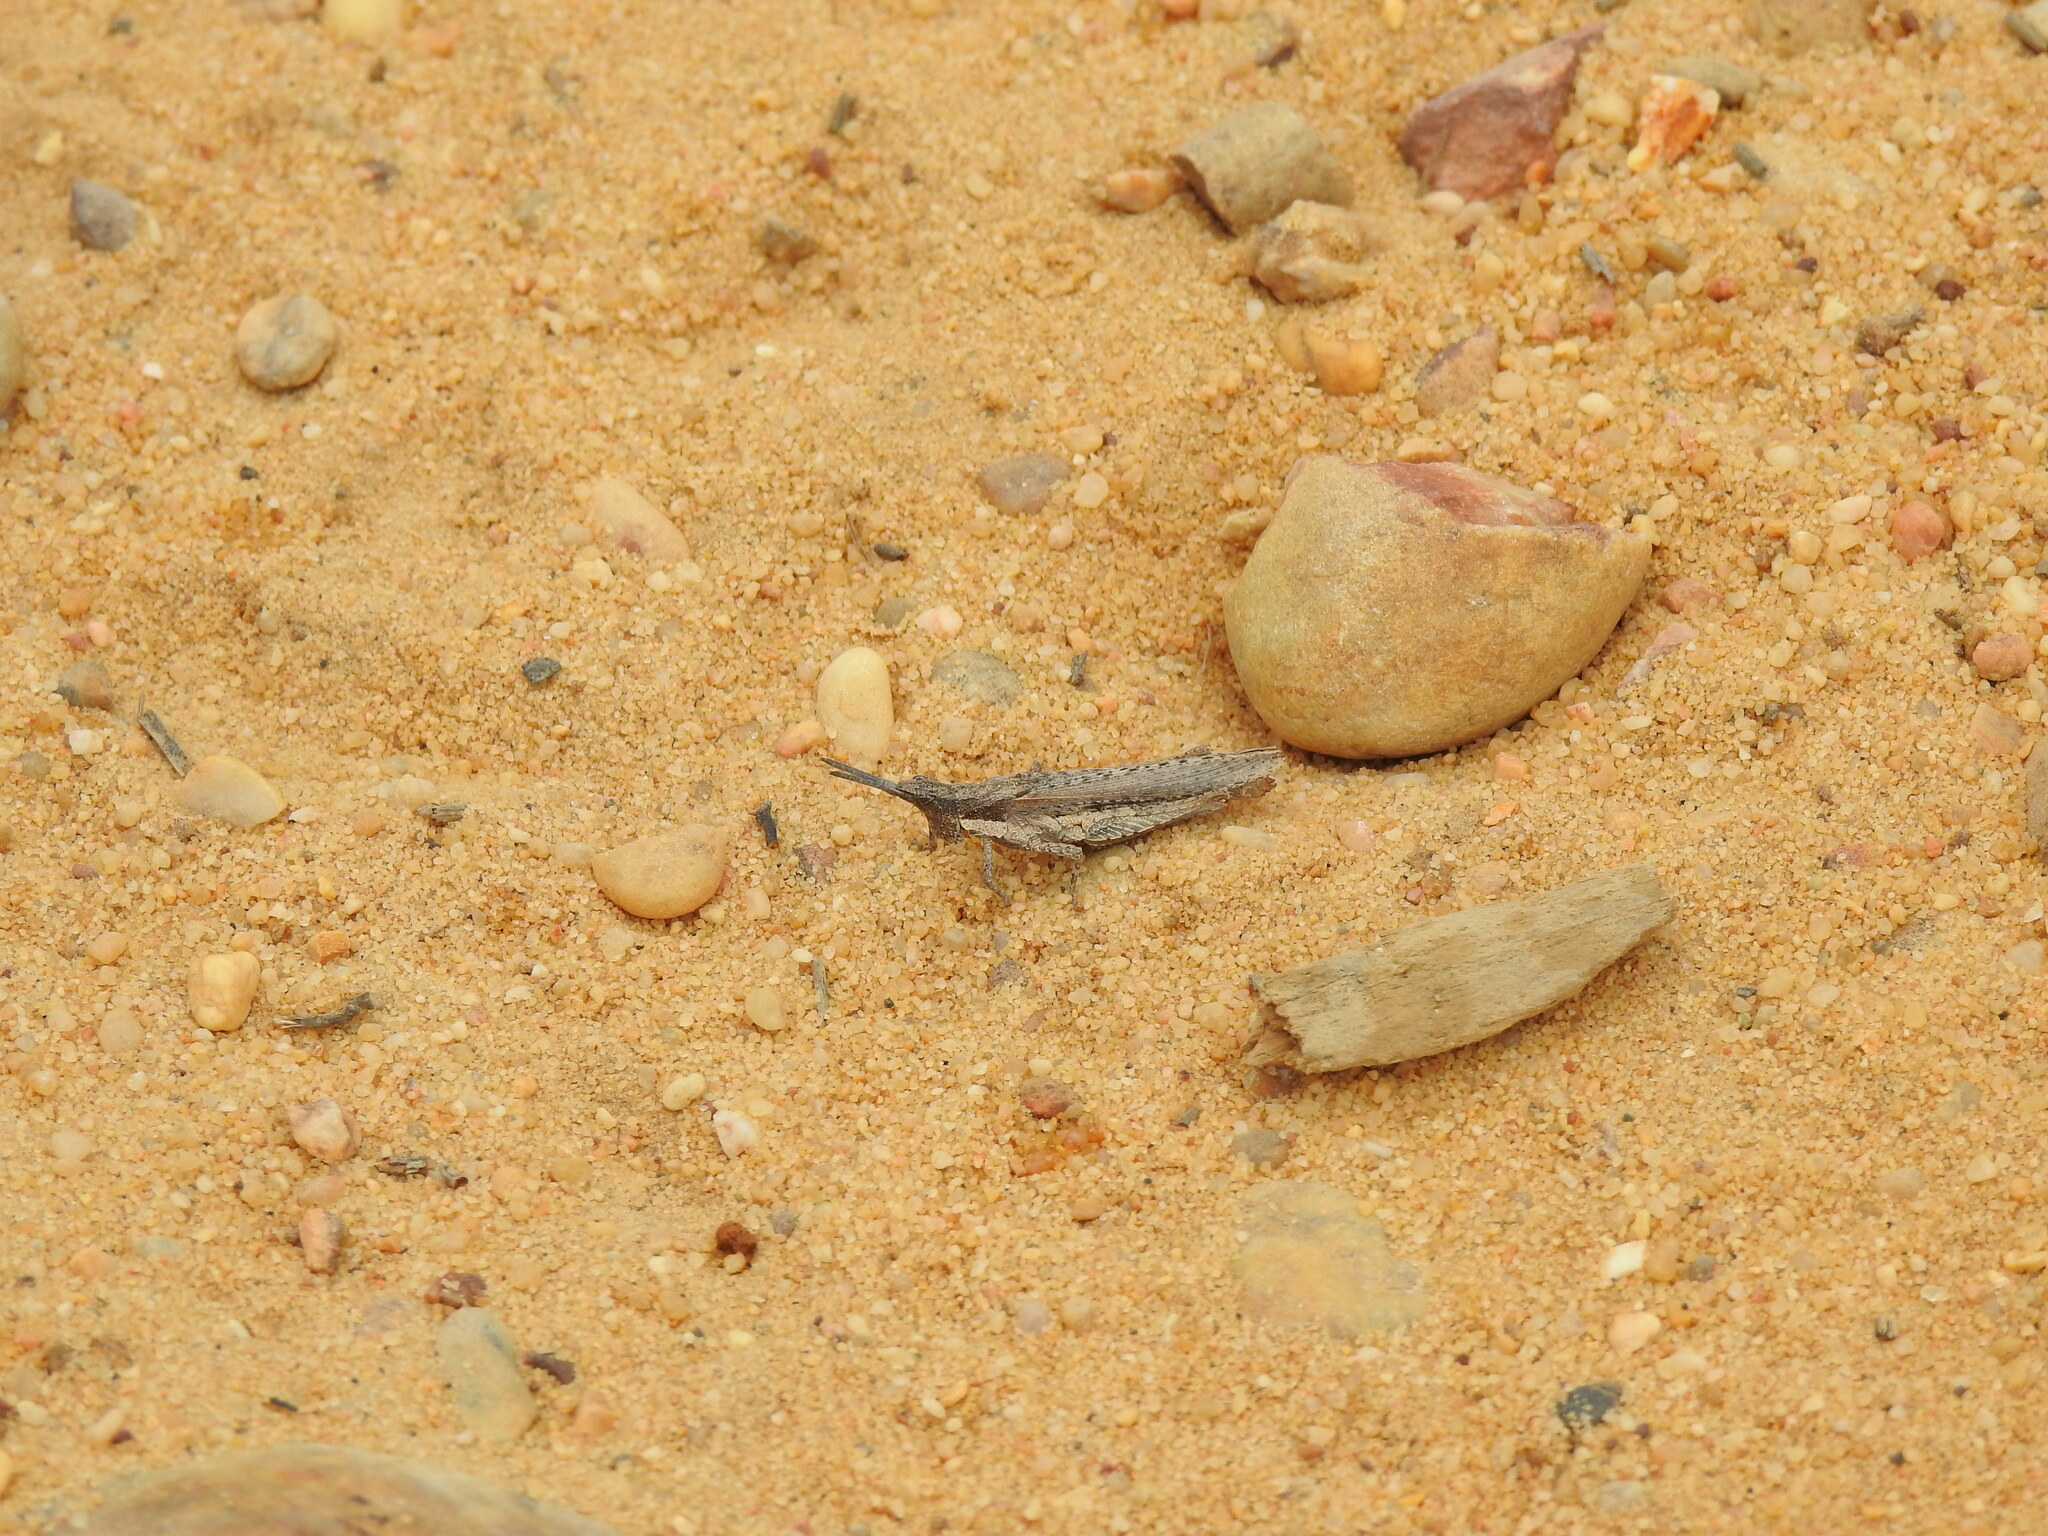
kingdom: Animalia
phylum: Arthropoda
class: Insecta
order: Orthoptera
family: Pyrgomorphidae
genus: Pyrgomorpha
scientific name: Pyrgomorpha conica
